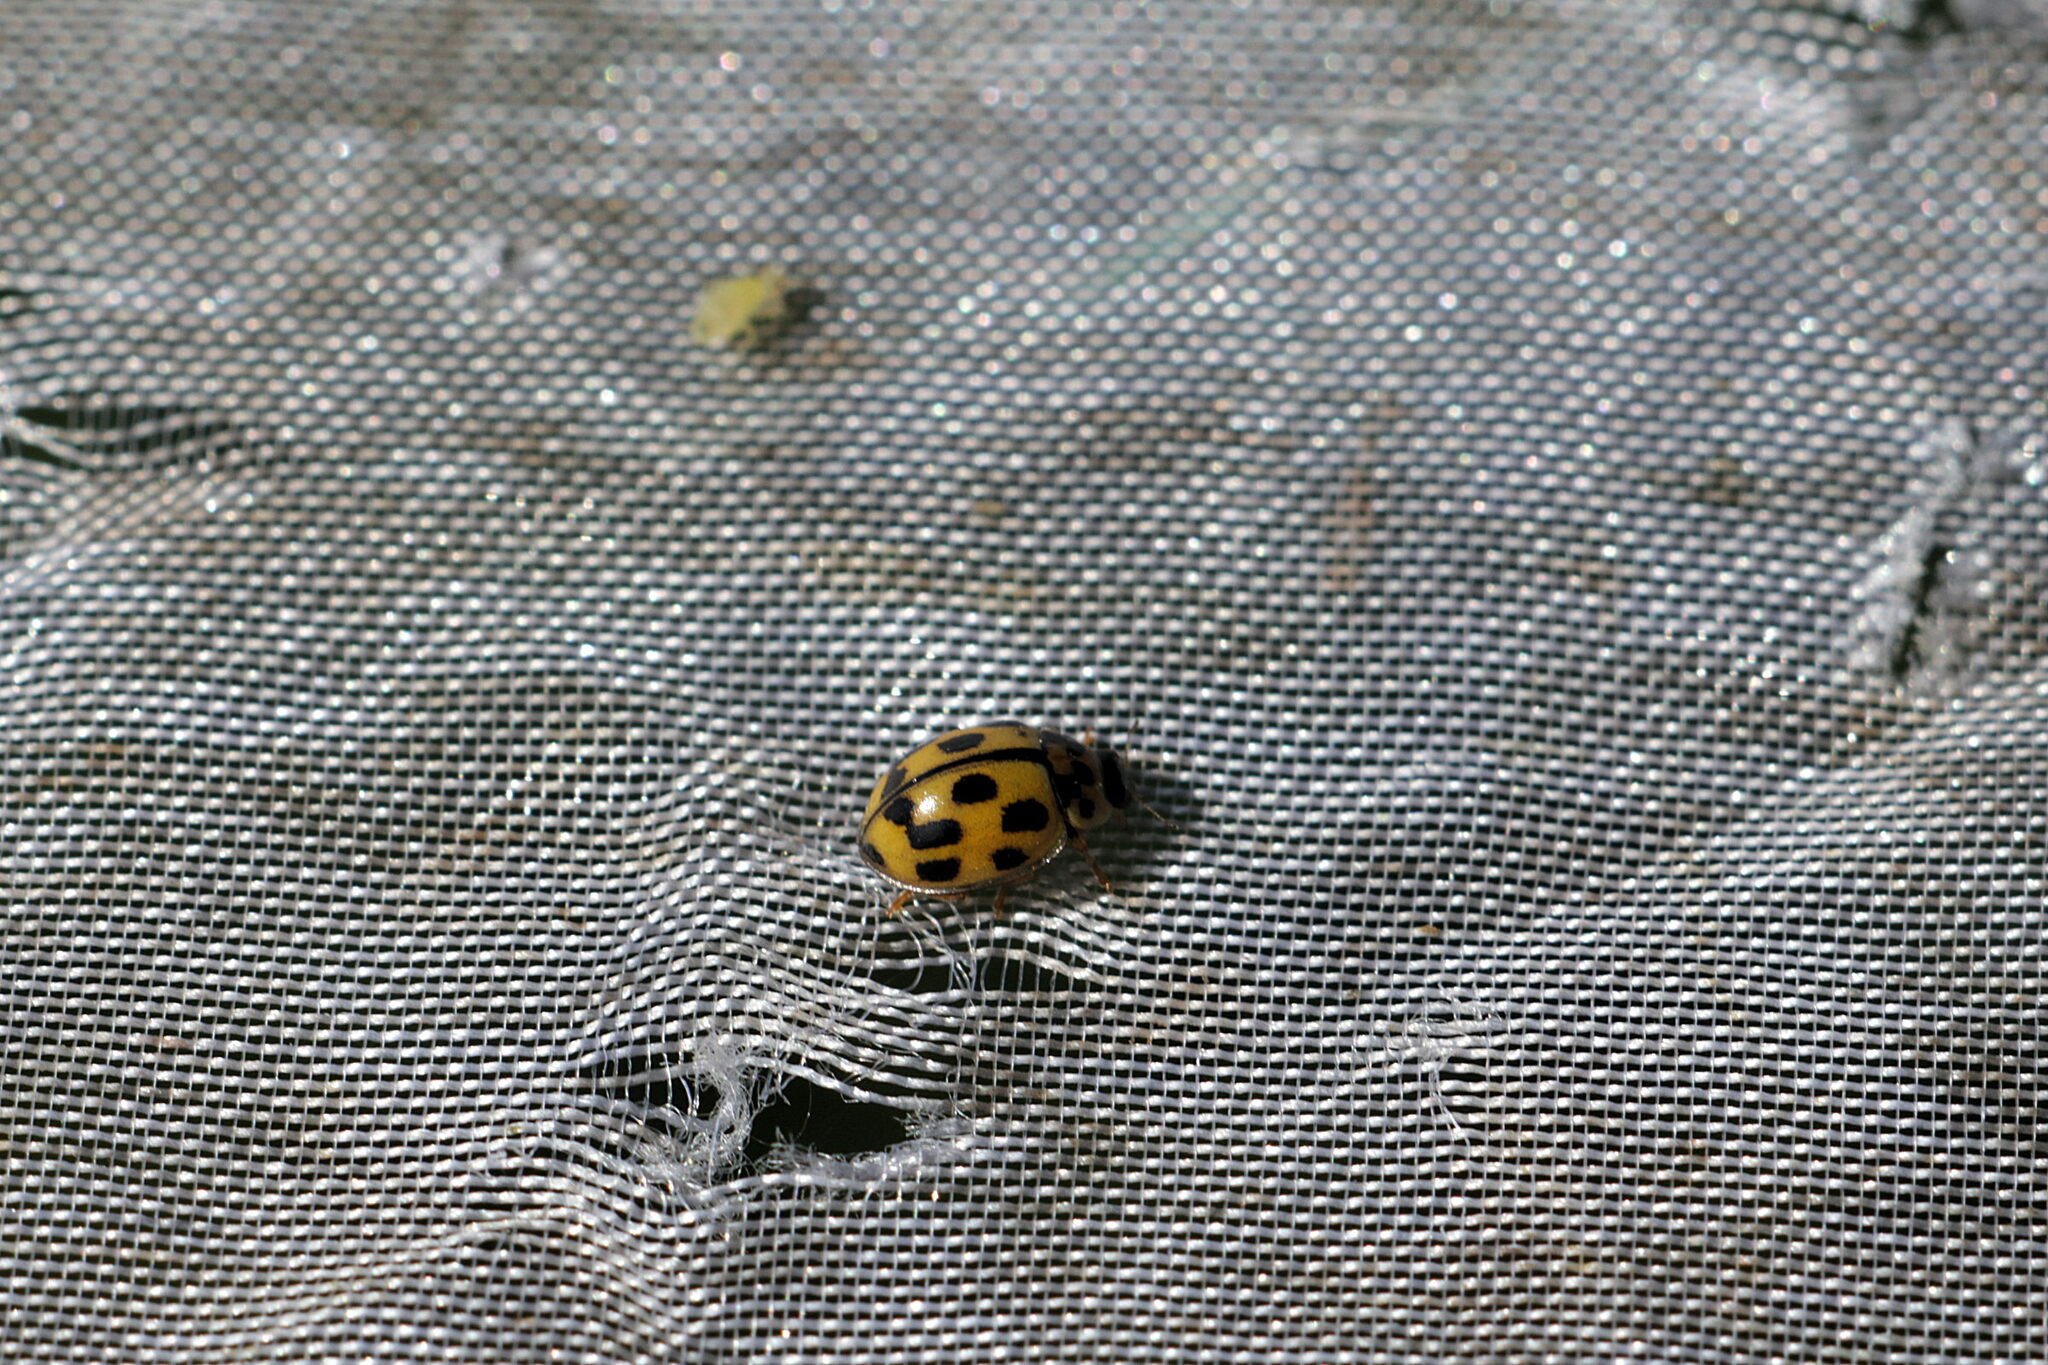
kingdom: Animalia
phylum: Arthropoda
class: Insecta
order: Coleoptera
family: Coccinellidae
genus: Propylaea
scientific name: Propylaea quatuordecimpunctata
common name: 14-spotted ladybird beetle
